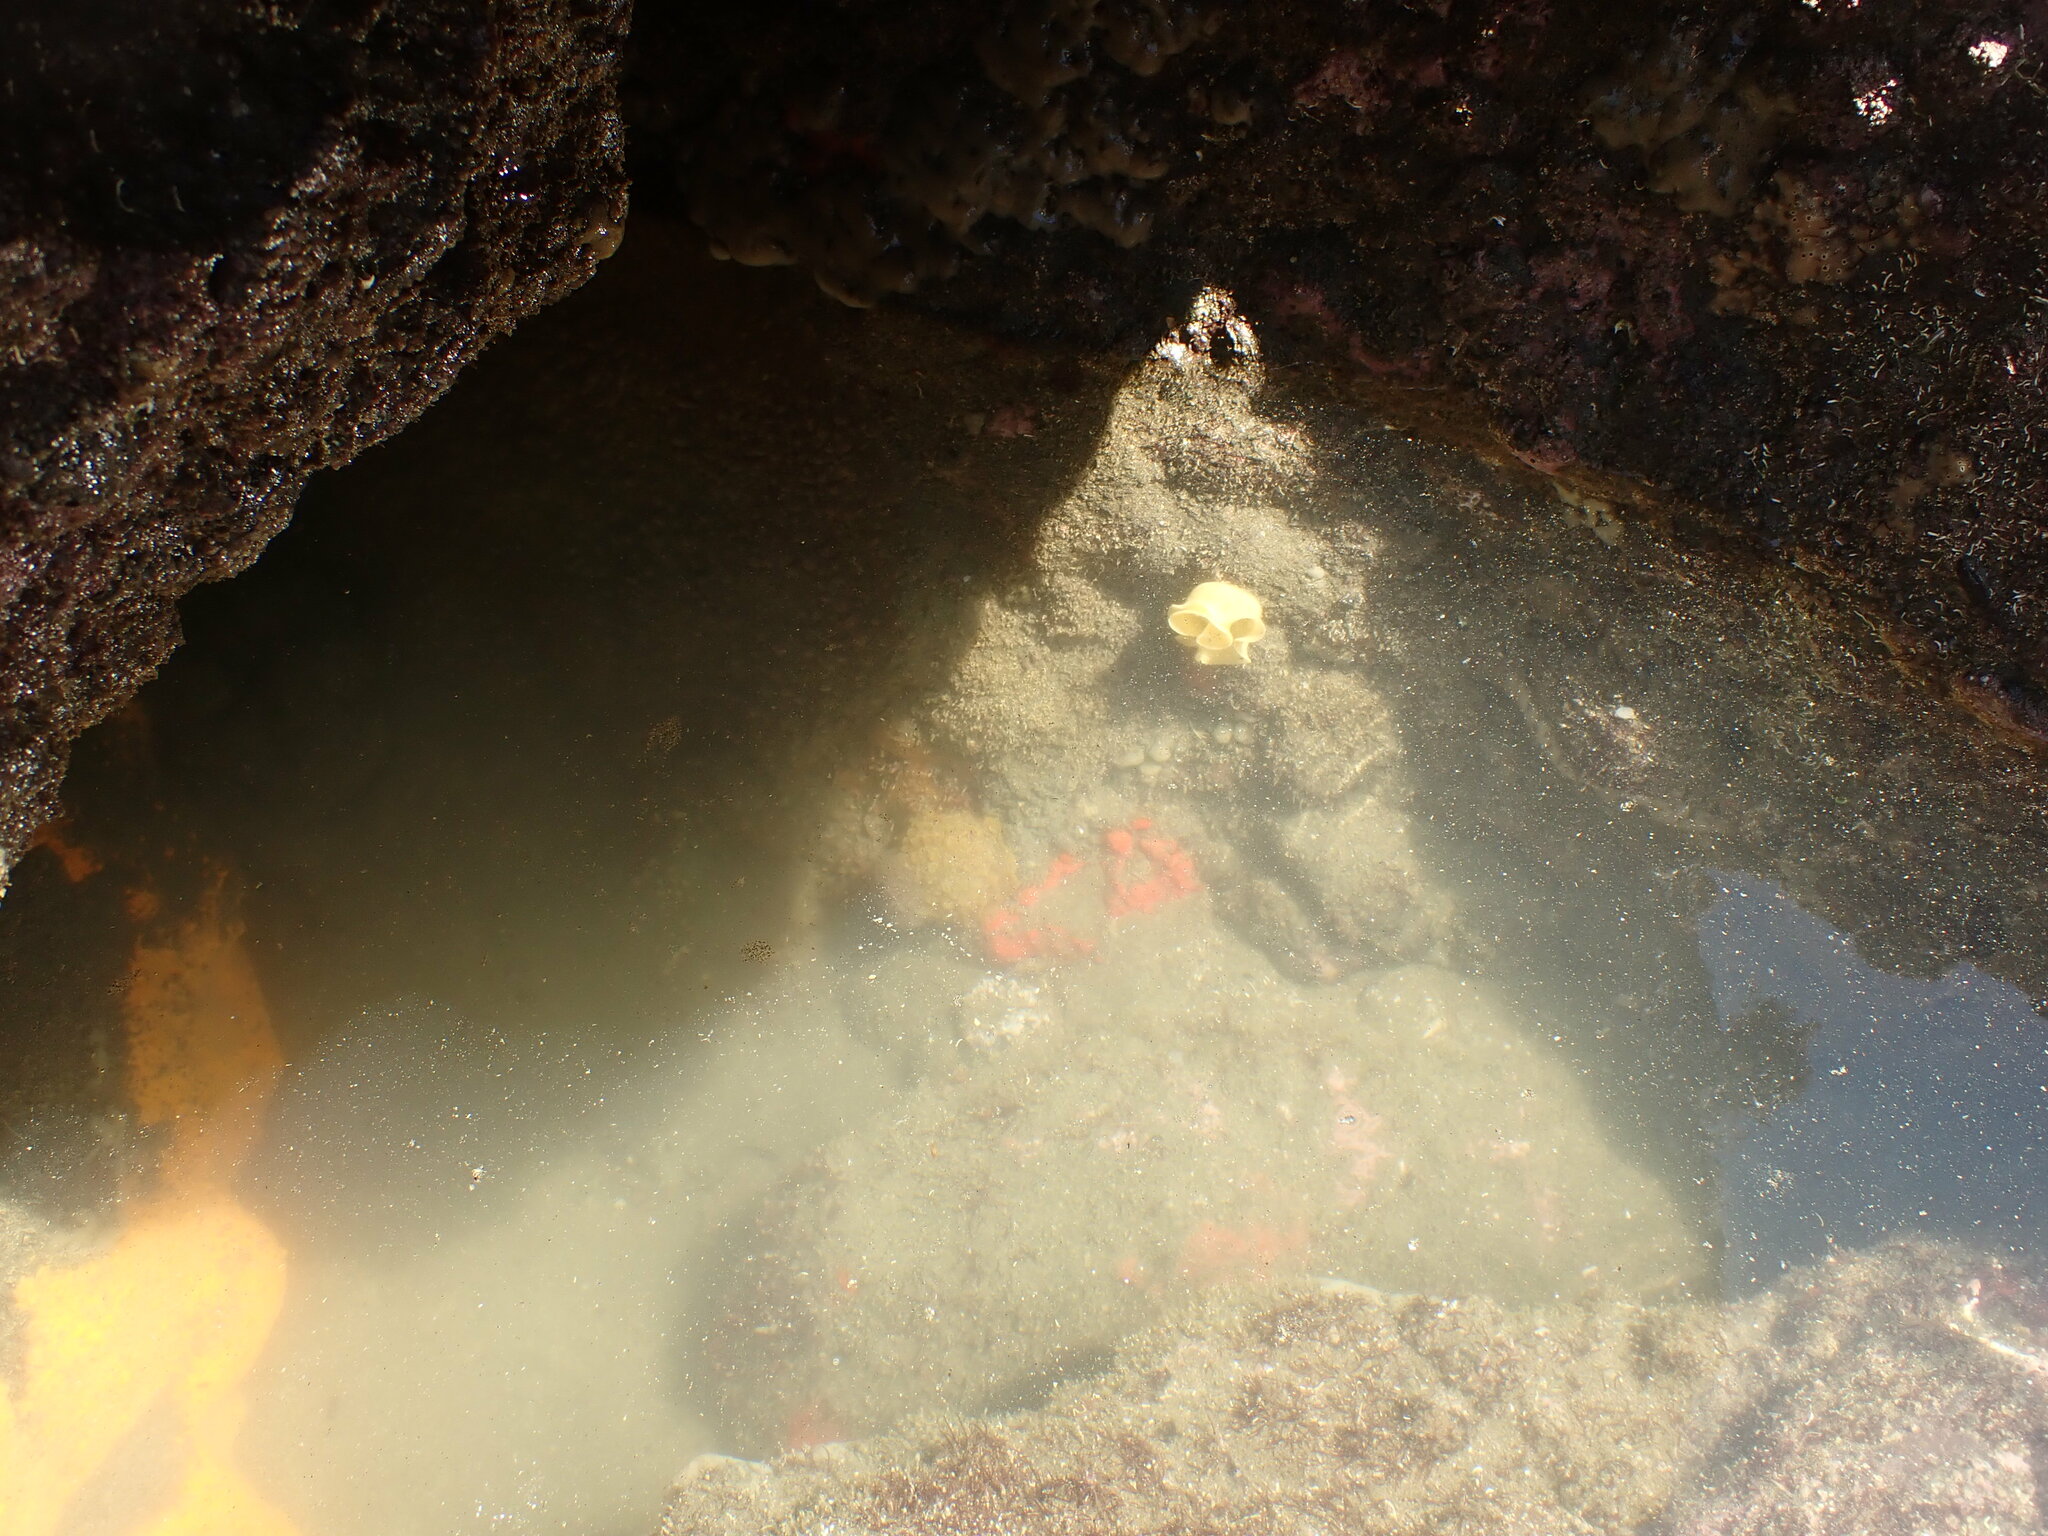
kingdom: Animalia
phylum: Mollusca
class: Gastropoda
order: Nudibranchia
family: Dorididae
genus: Doris
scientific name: Doris wellingtonensis
